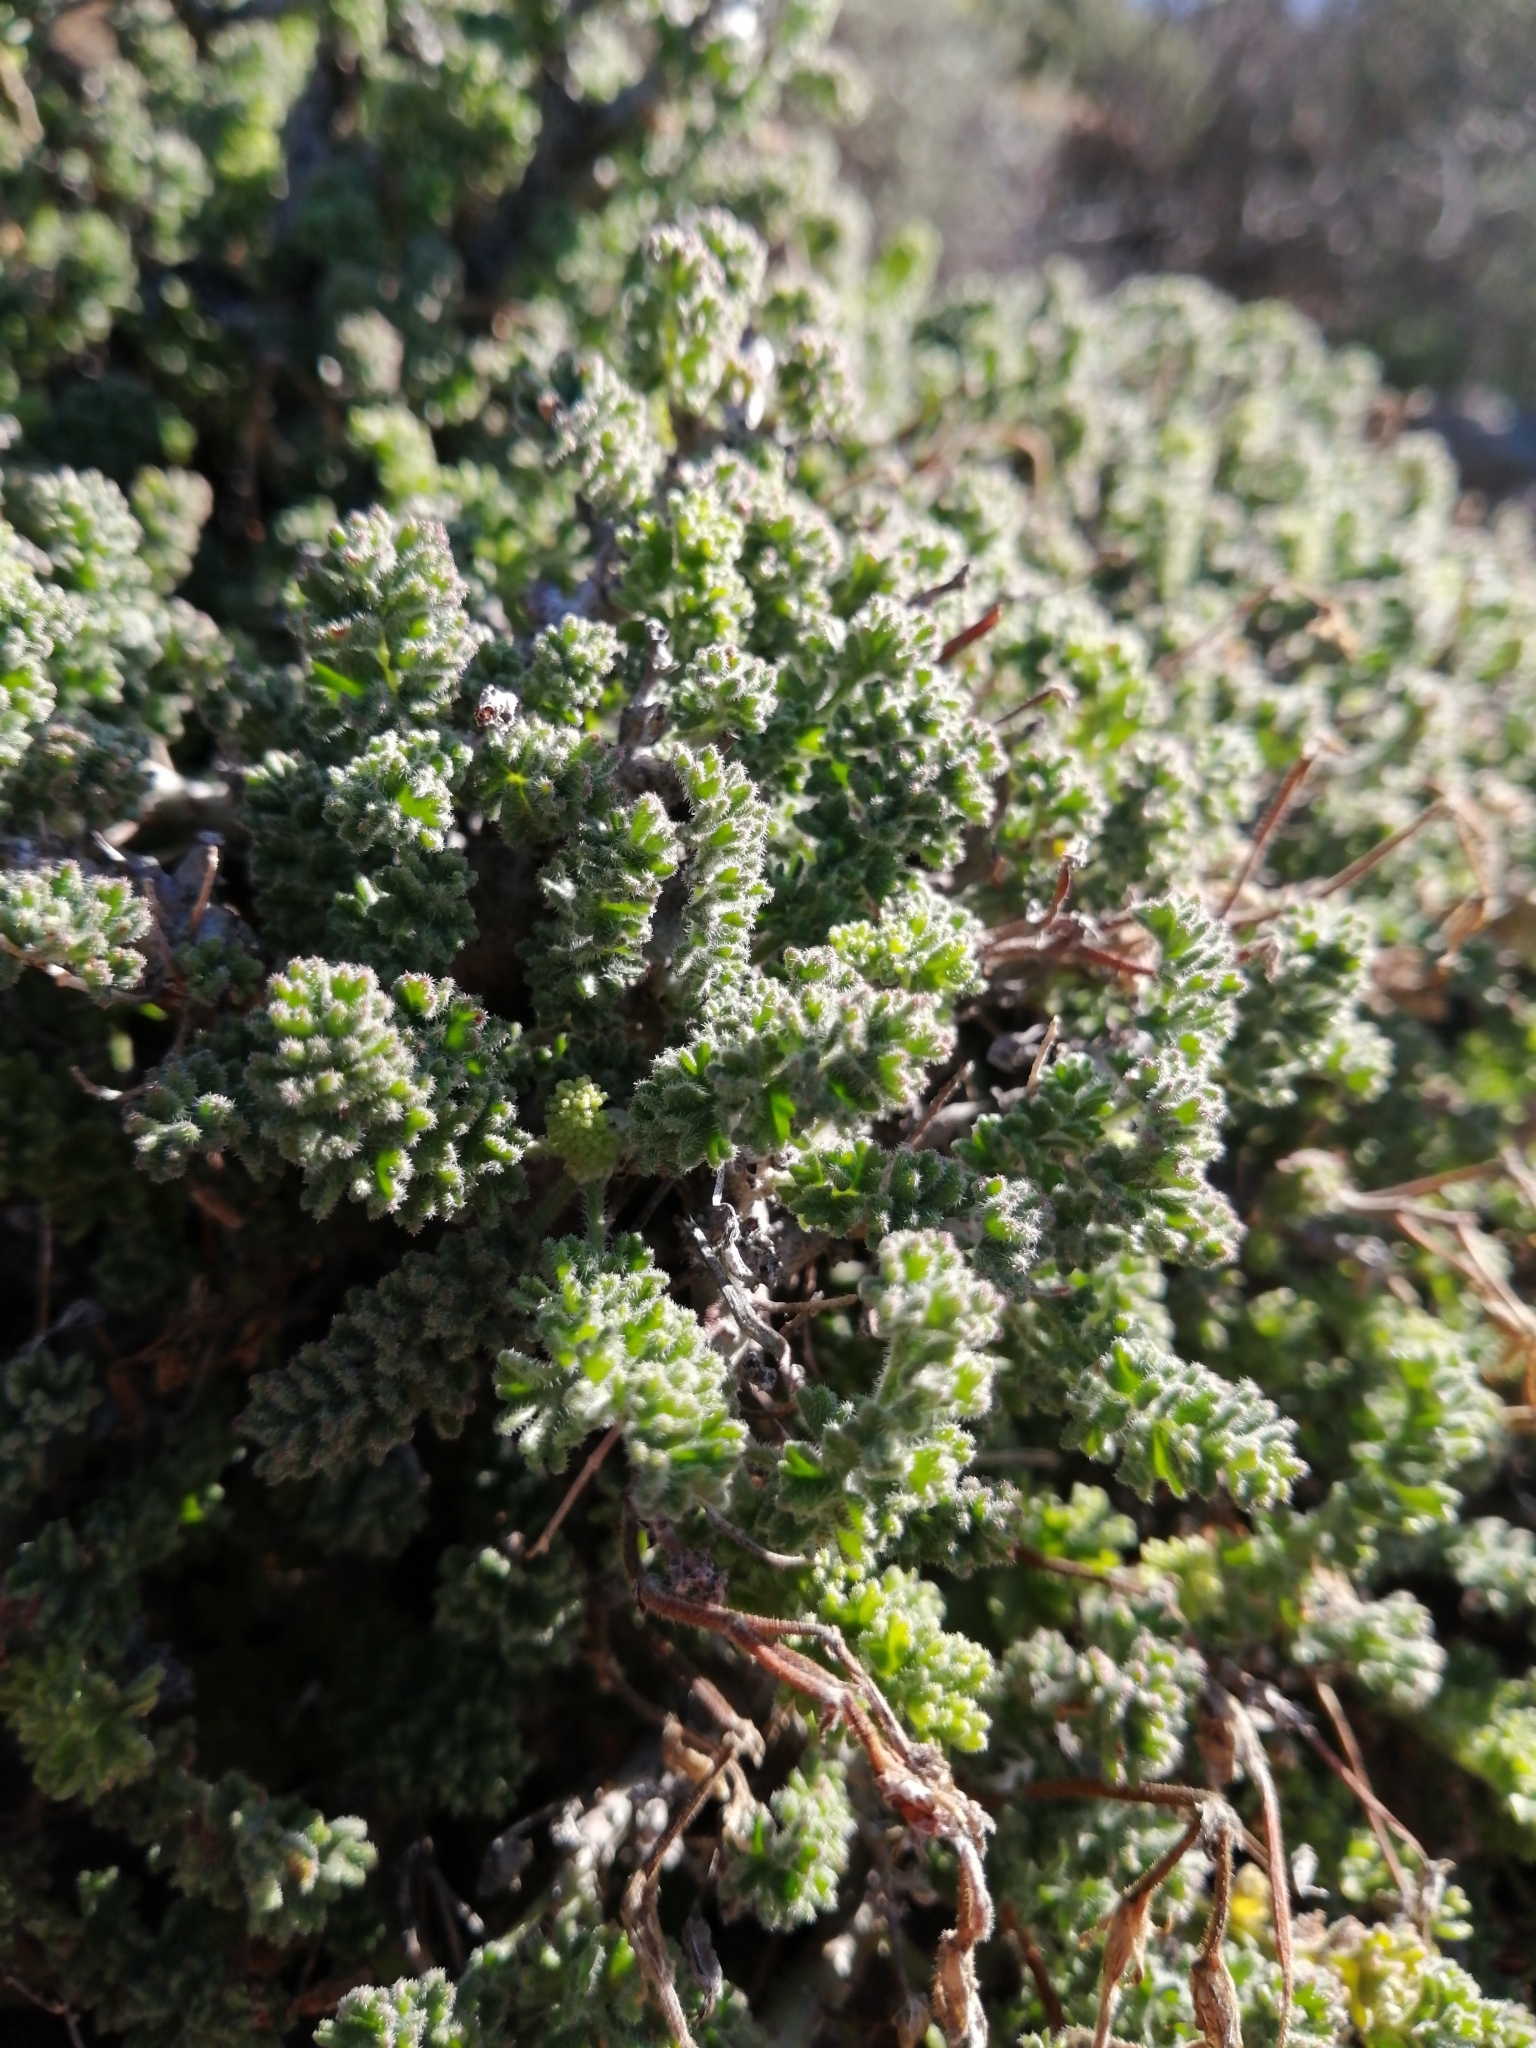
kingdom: Plantae
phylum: Tracheophyta
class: Magnoliopsida
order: Geraniales
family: Geraniaceae
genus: Pelargonium
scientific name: Pelargonium alternans
